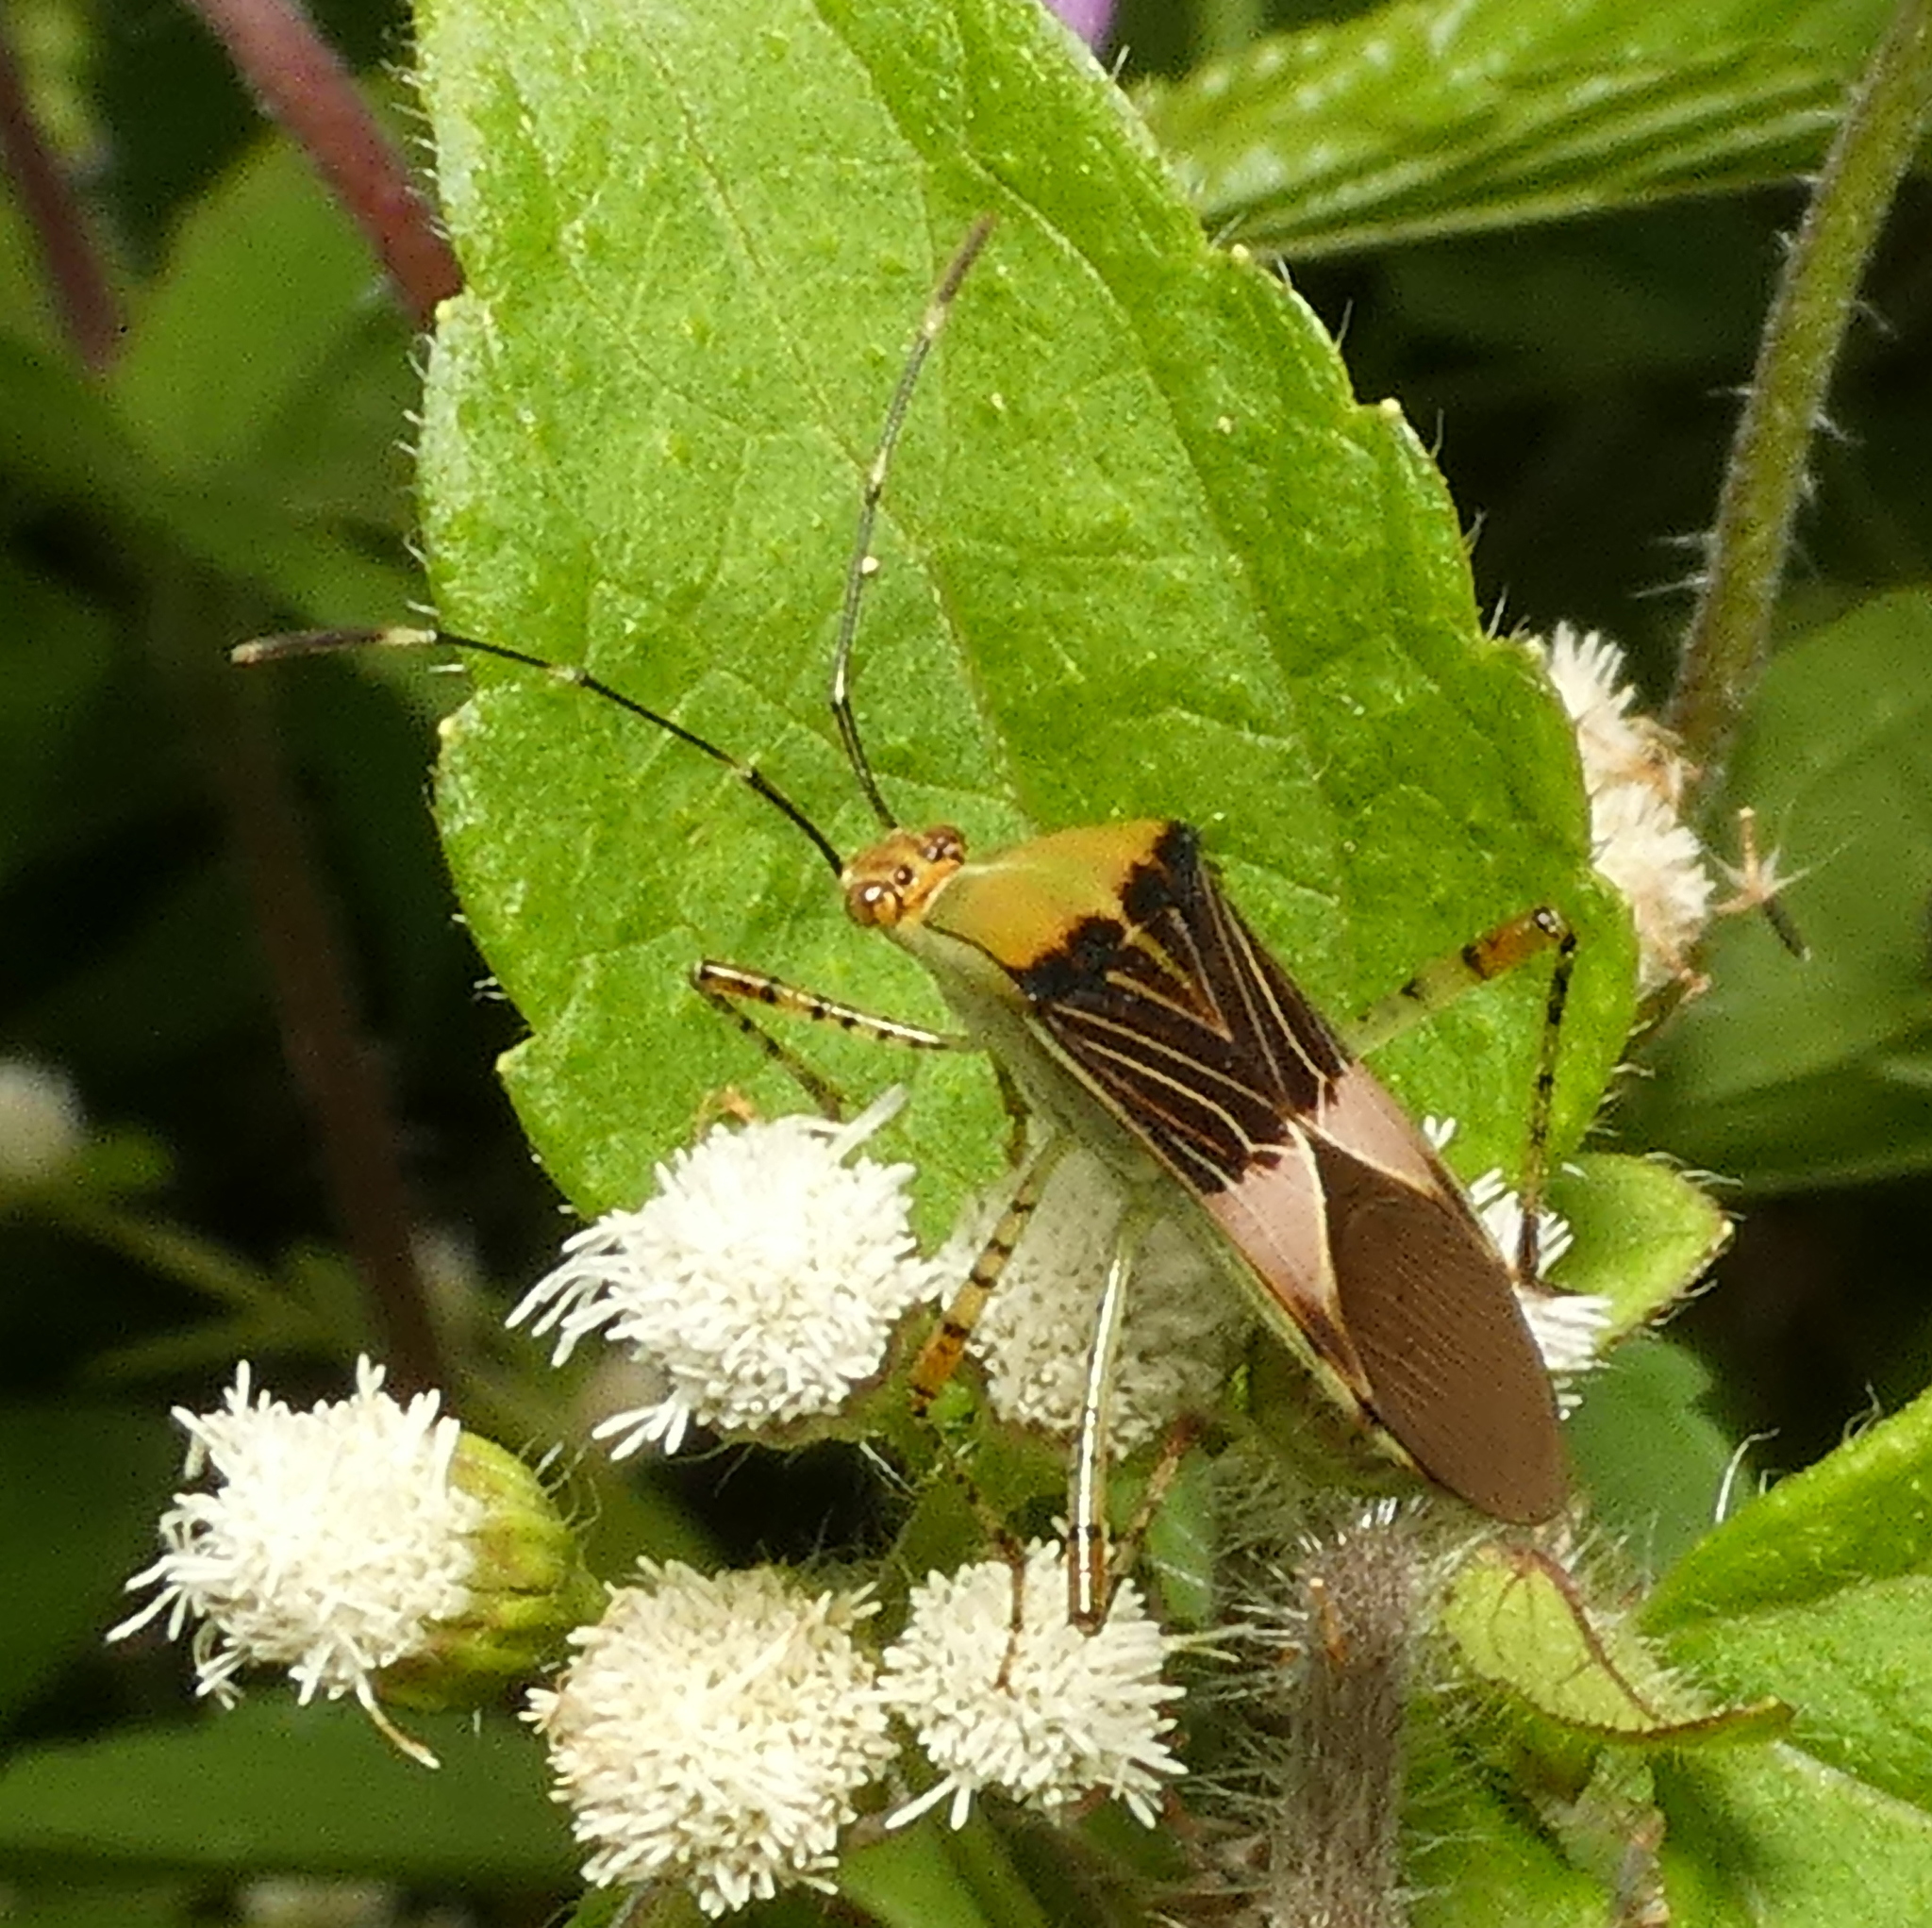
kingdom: Animalia
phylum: Arthropoda
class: Insecta
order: Hemiptera
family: Coreidae
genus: Hypselonotus
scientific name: Hypselonotus fulvus
